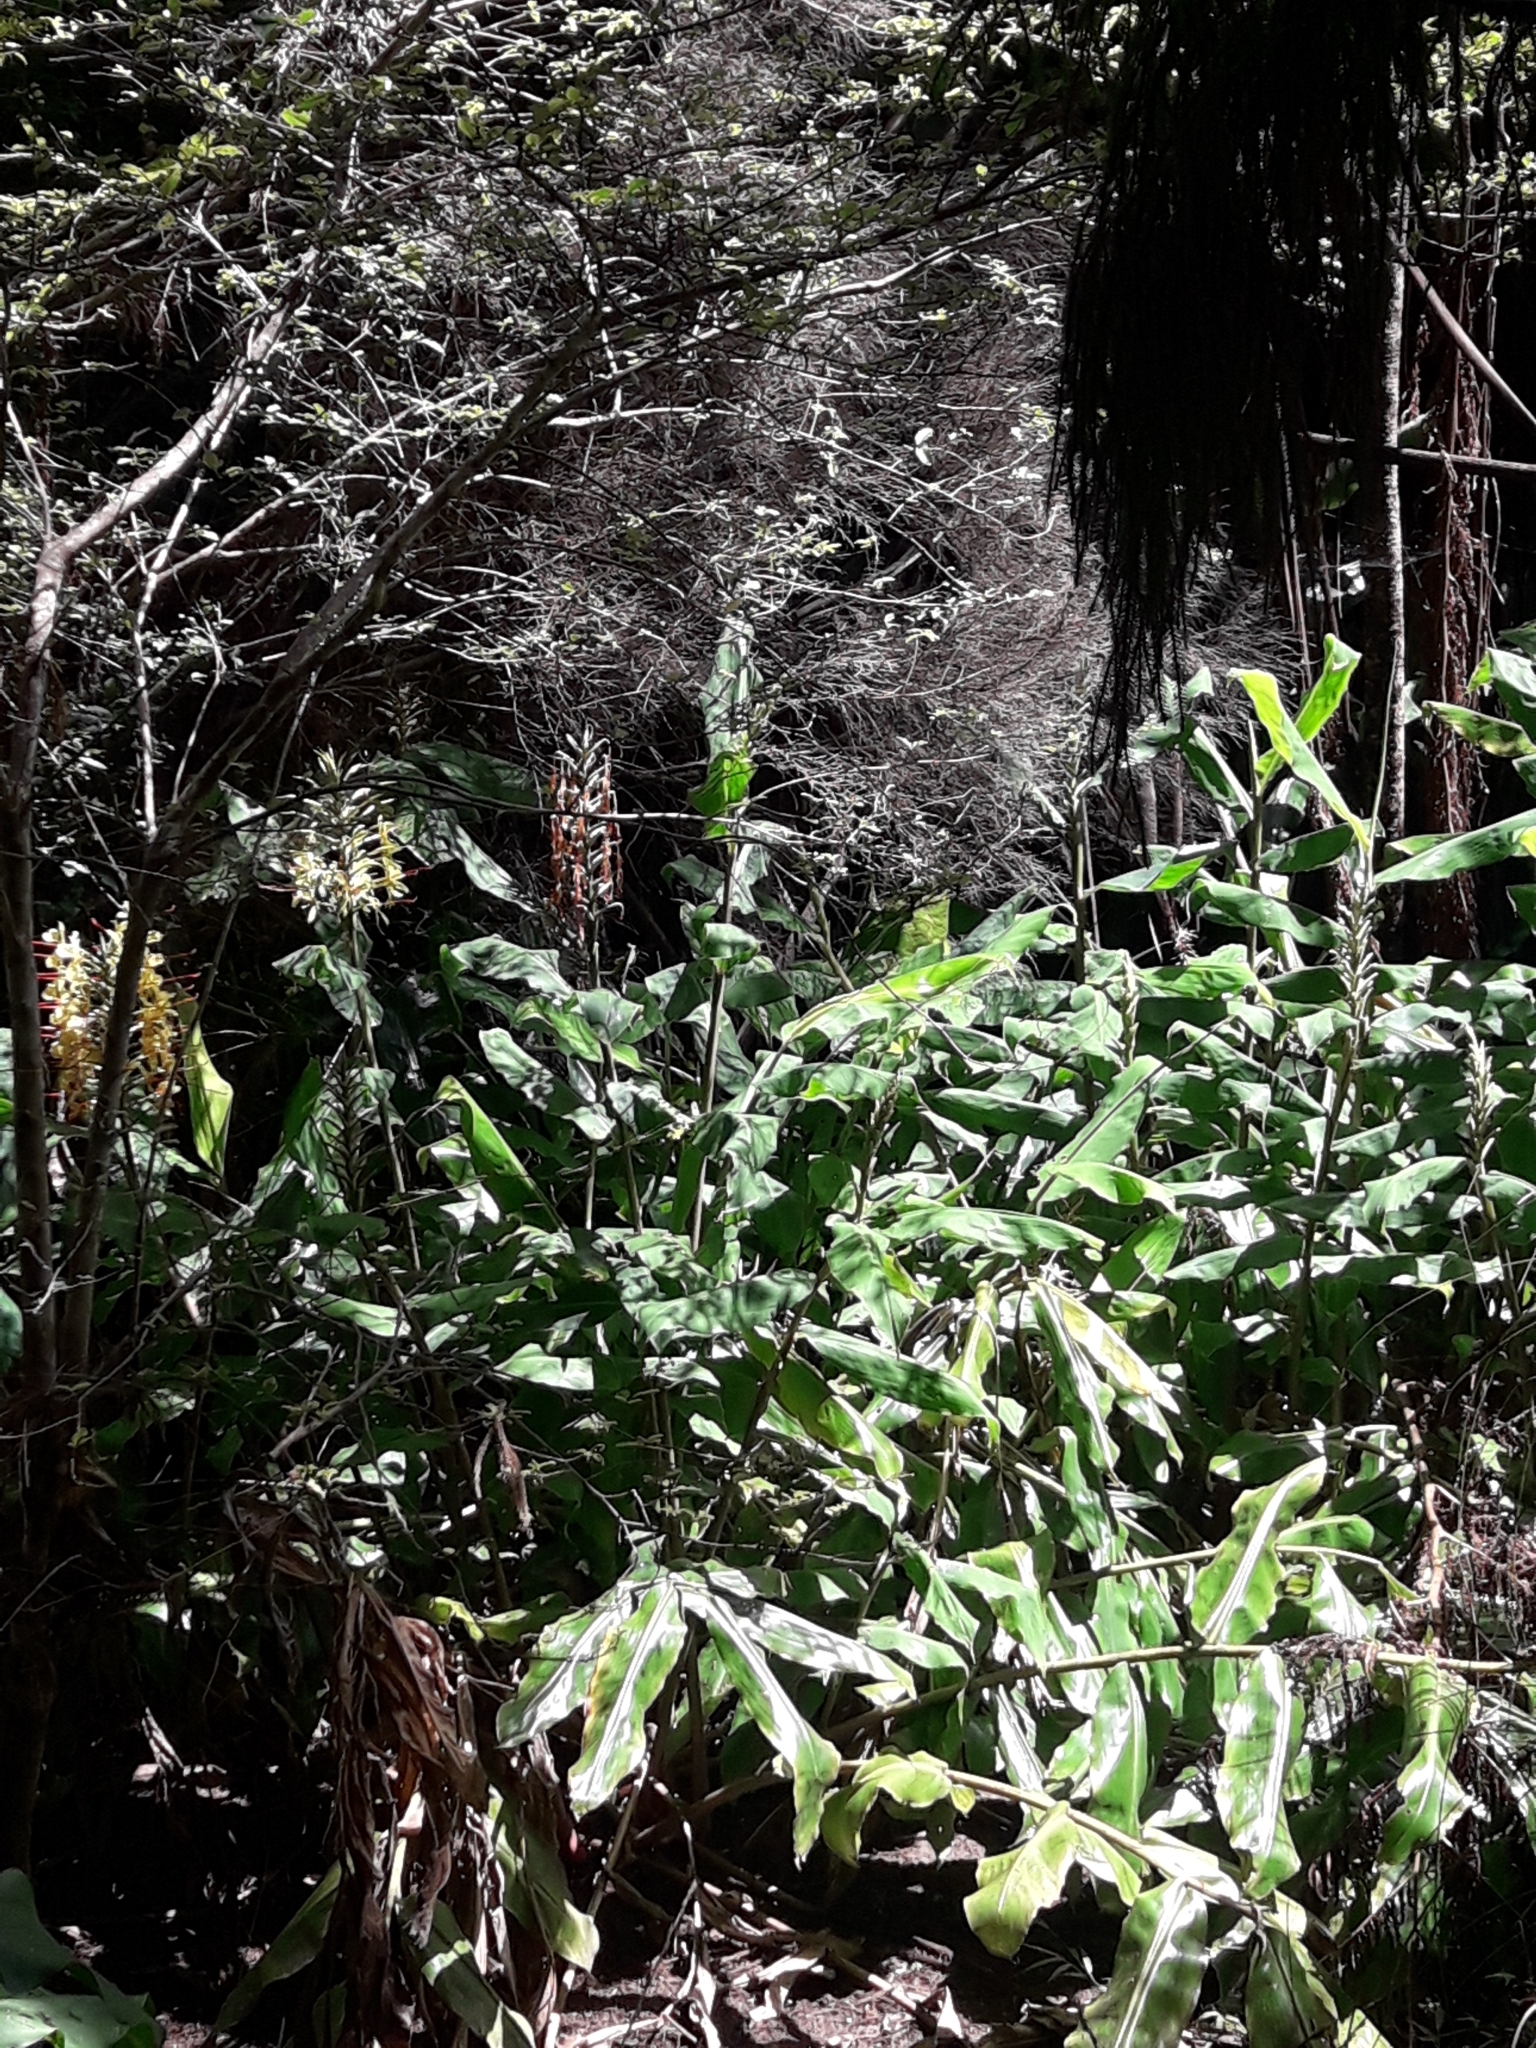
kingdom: Plantae
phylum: Tracheophyta
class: Liliopsida
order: Zingiberales
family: Zingiberaceae
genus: Hedychium
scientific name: Hedychium gardnerianum
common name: Himalayan ginger
